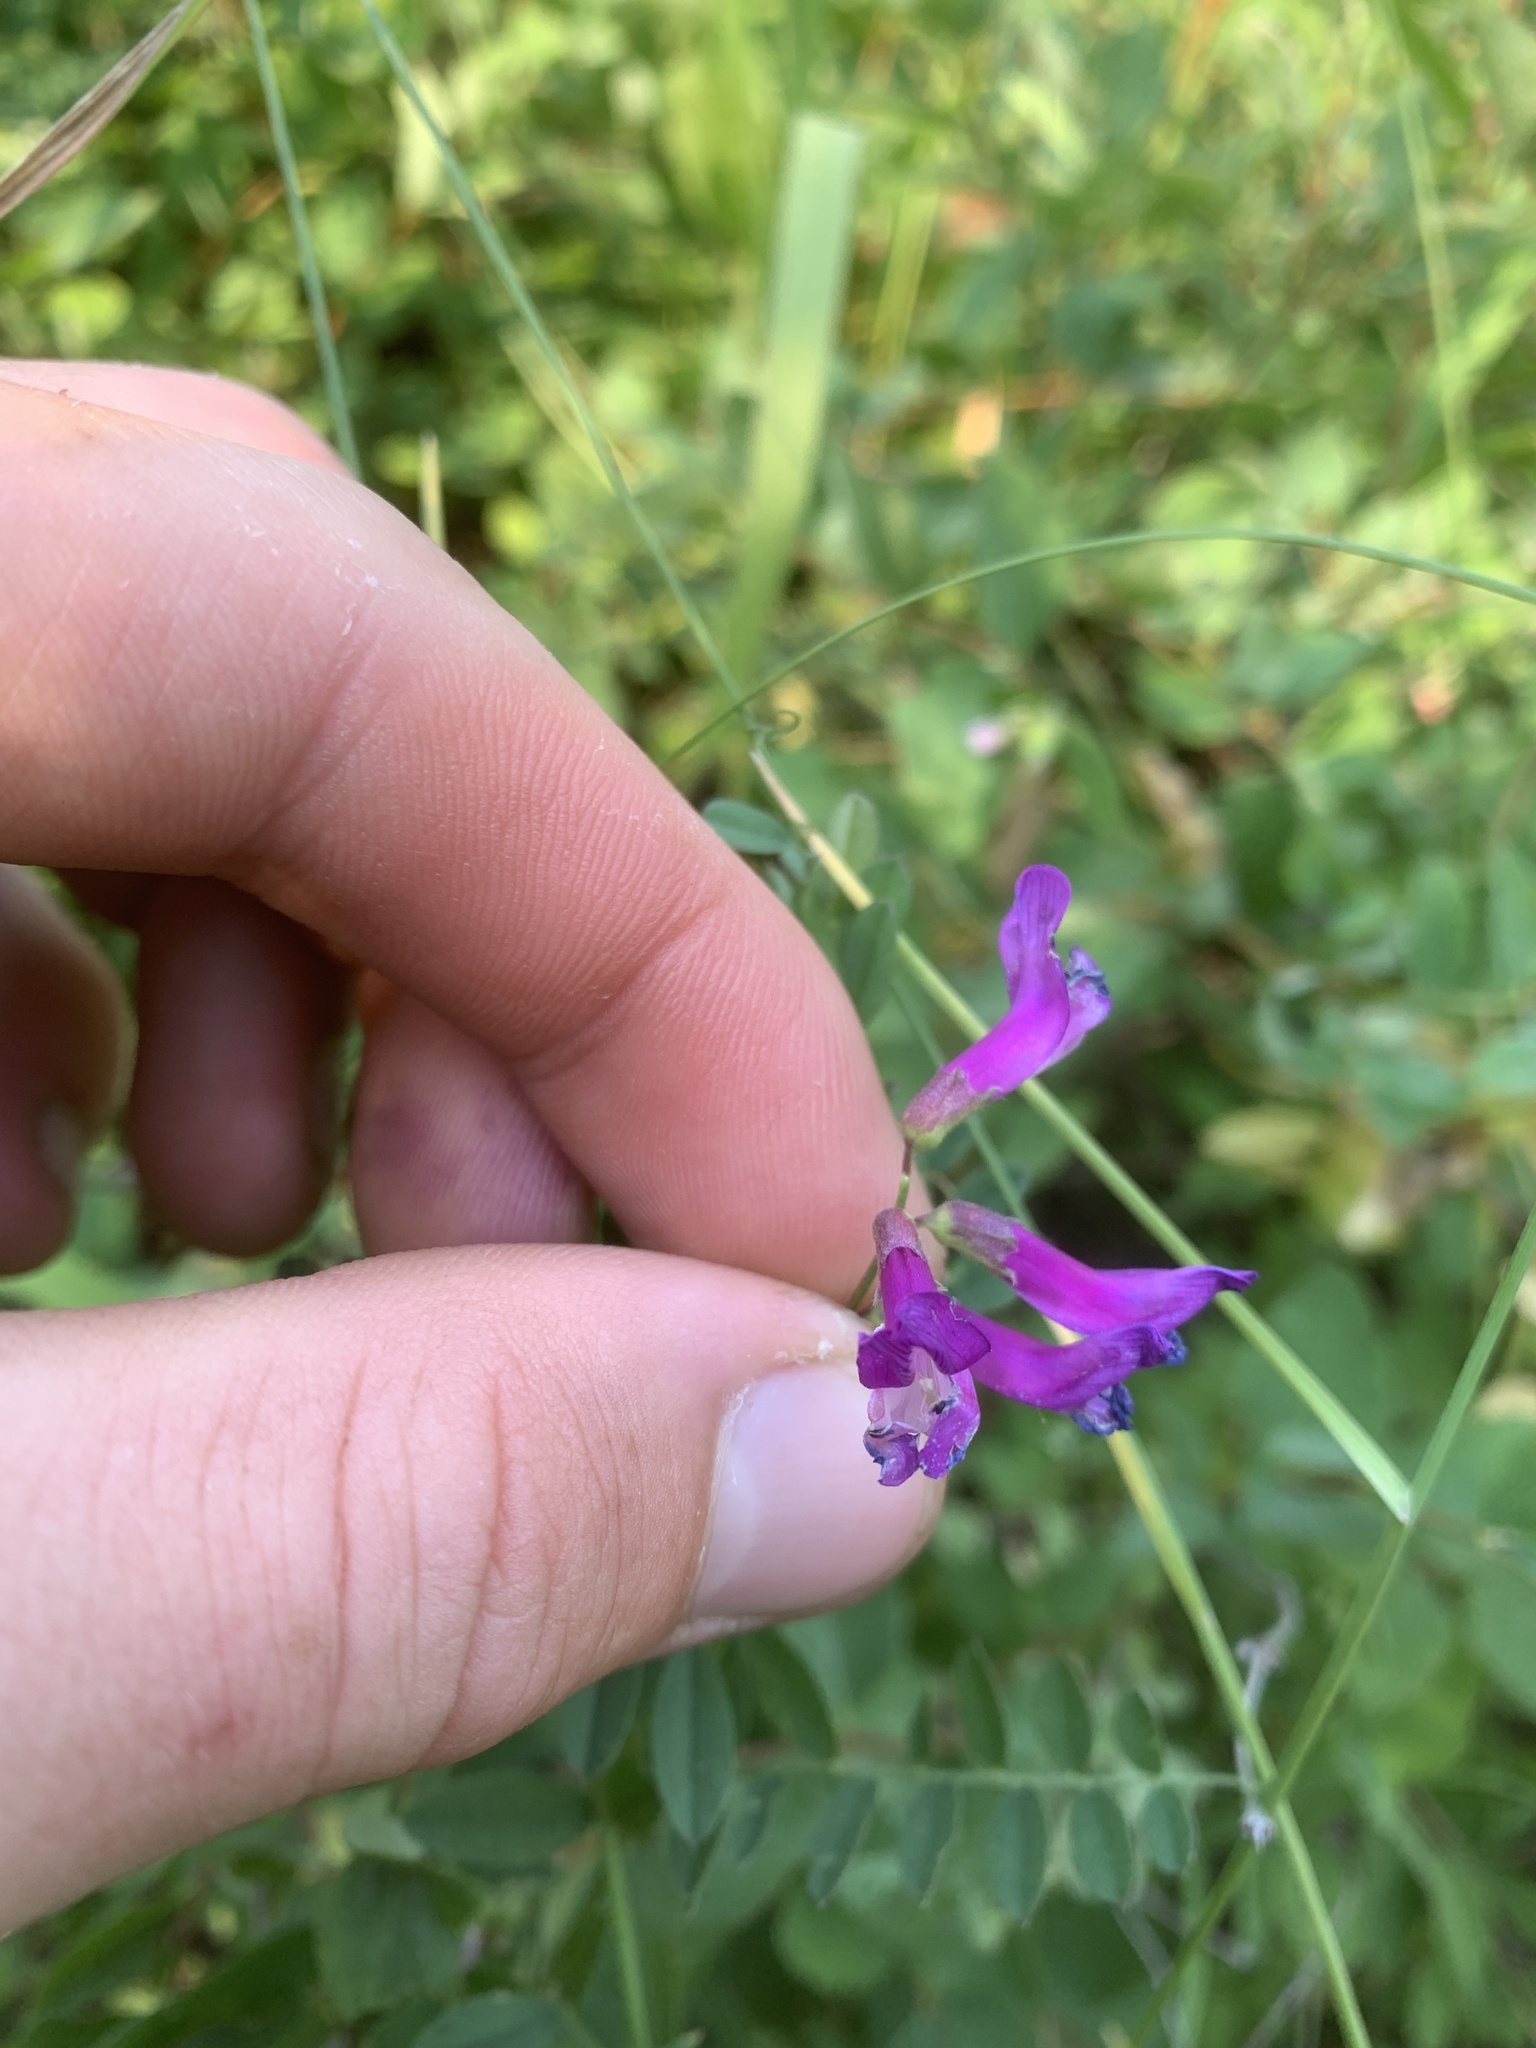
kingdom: Plantae
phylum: Tracheophyta
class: Magnoliopsida
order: Fabales
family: Fabaceae
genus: Vicia
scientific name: Vicia americana
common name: American vetch
